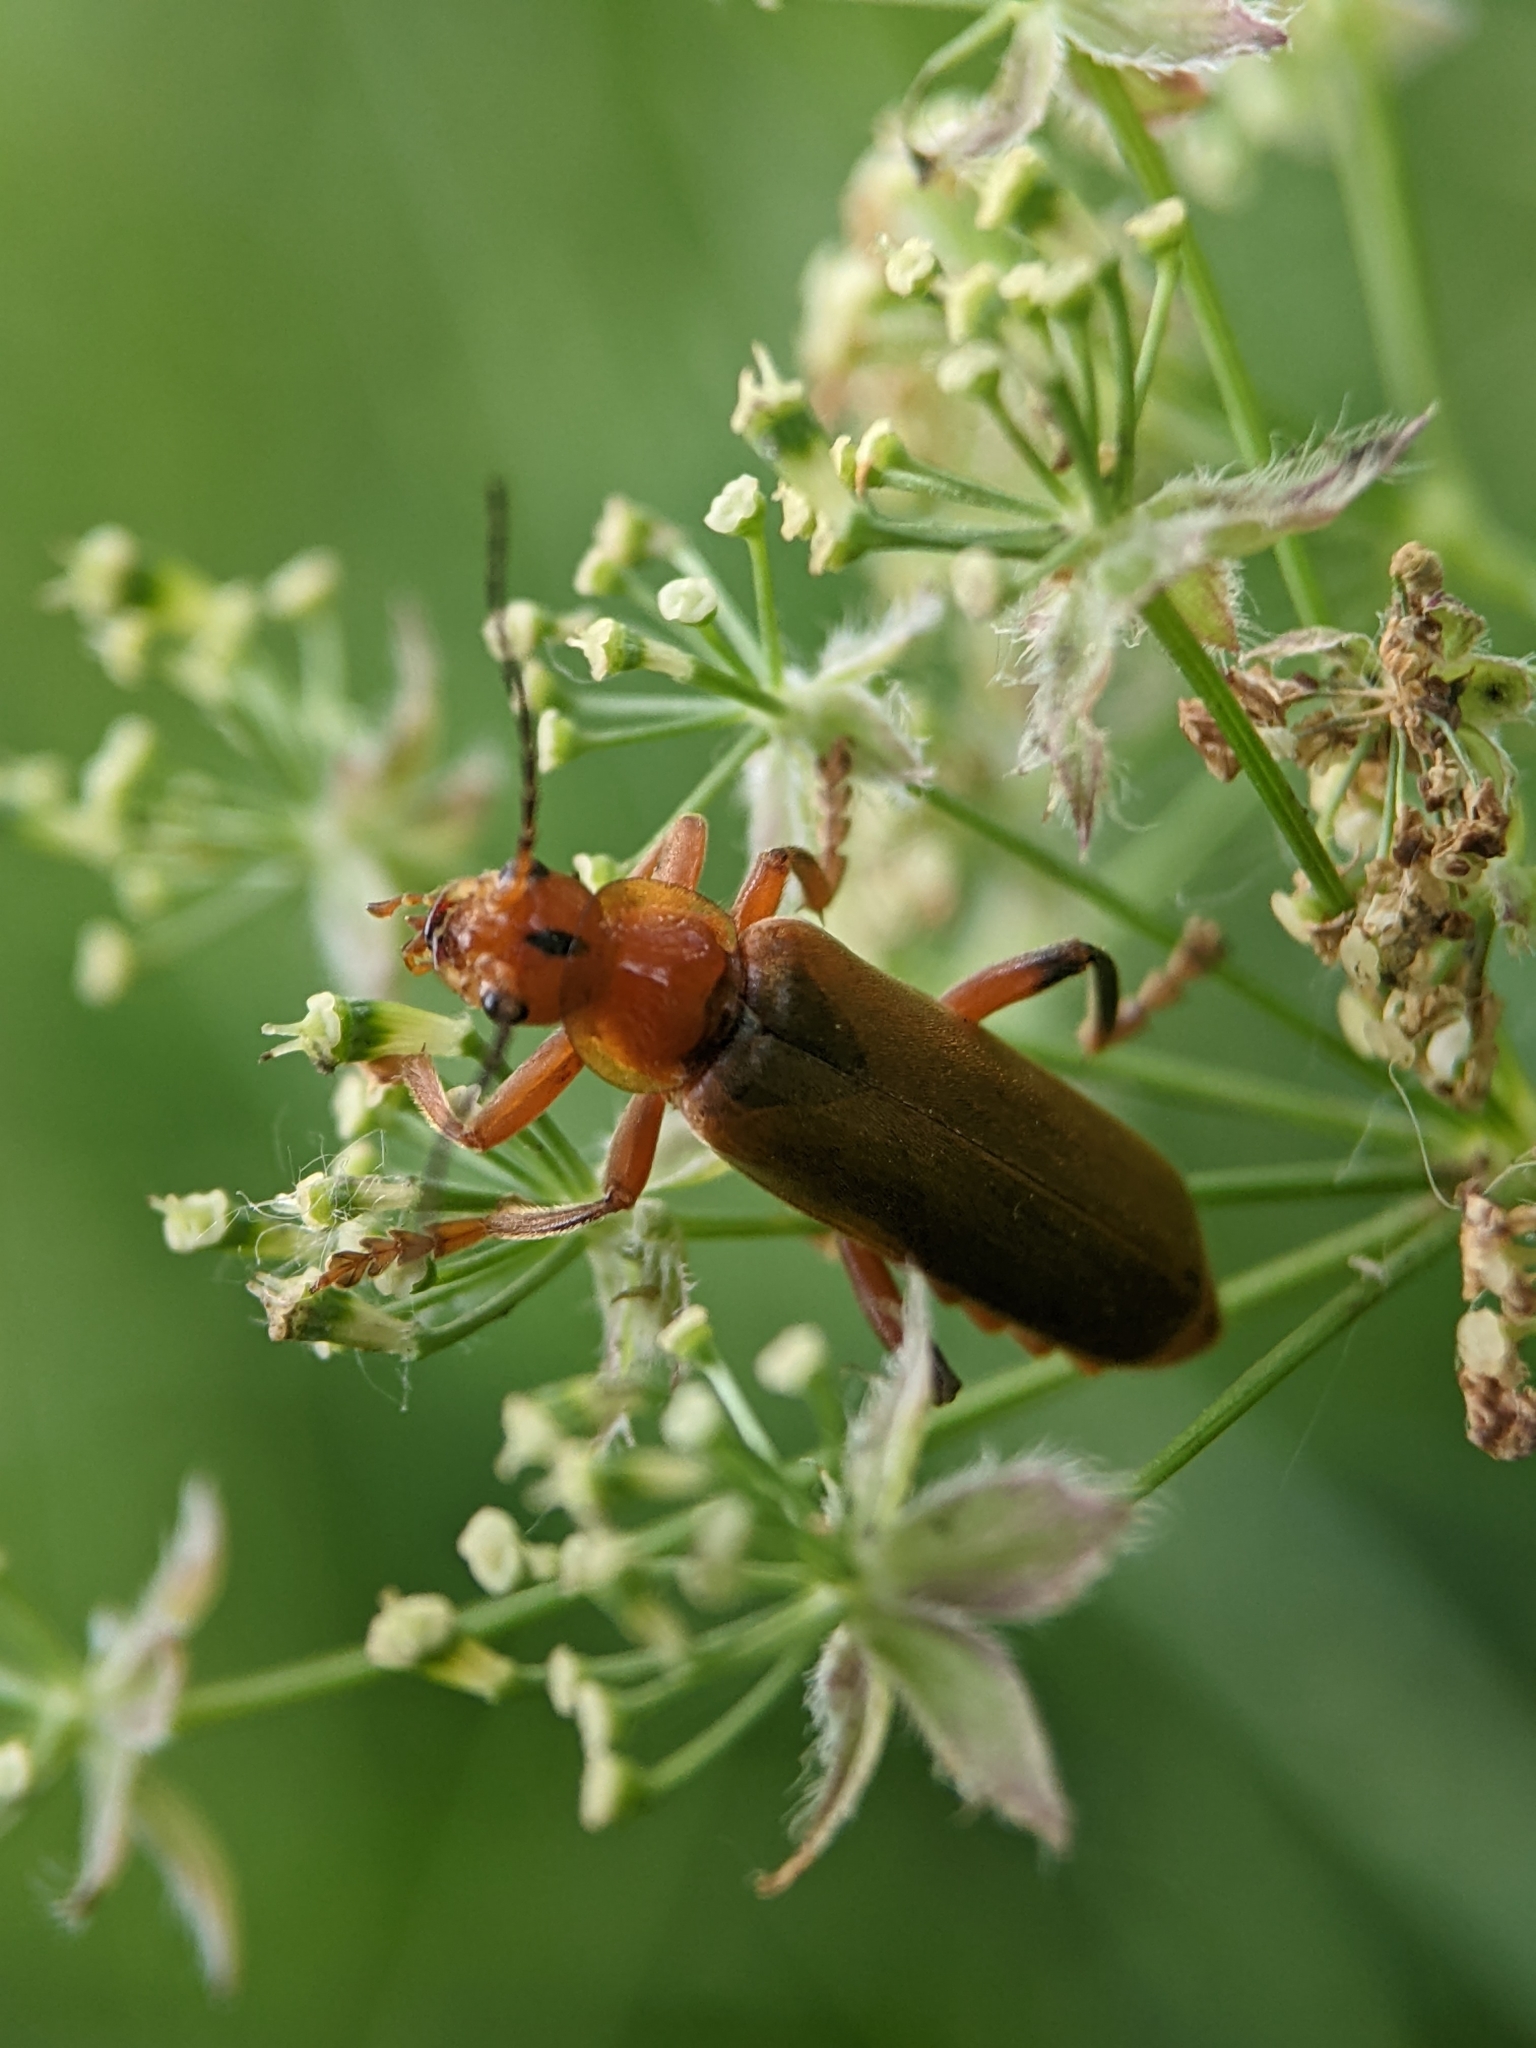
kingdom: Animalia
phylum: Arthropoda
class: Insecta
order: Coleoptera
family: Cantharidae
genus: Cantharis
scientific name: Cantharis livida
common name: Livid soldier beetle
